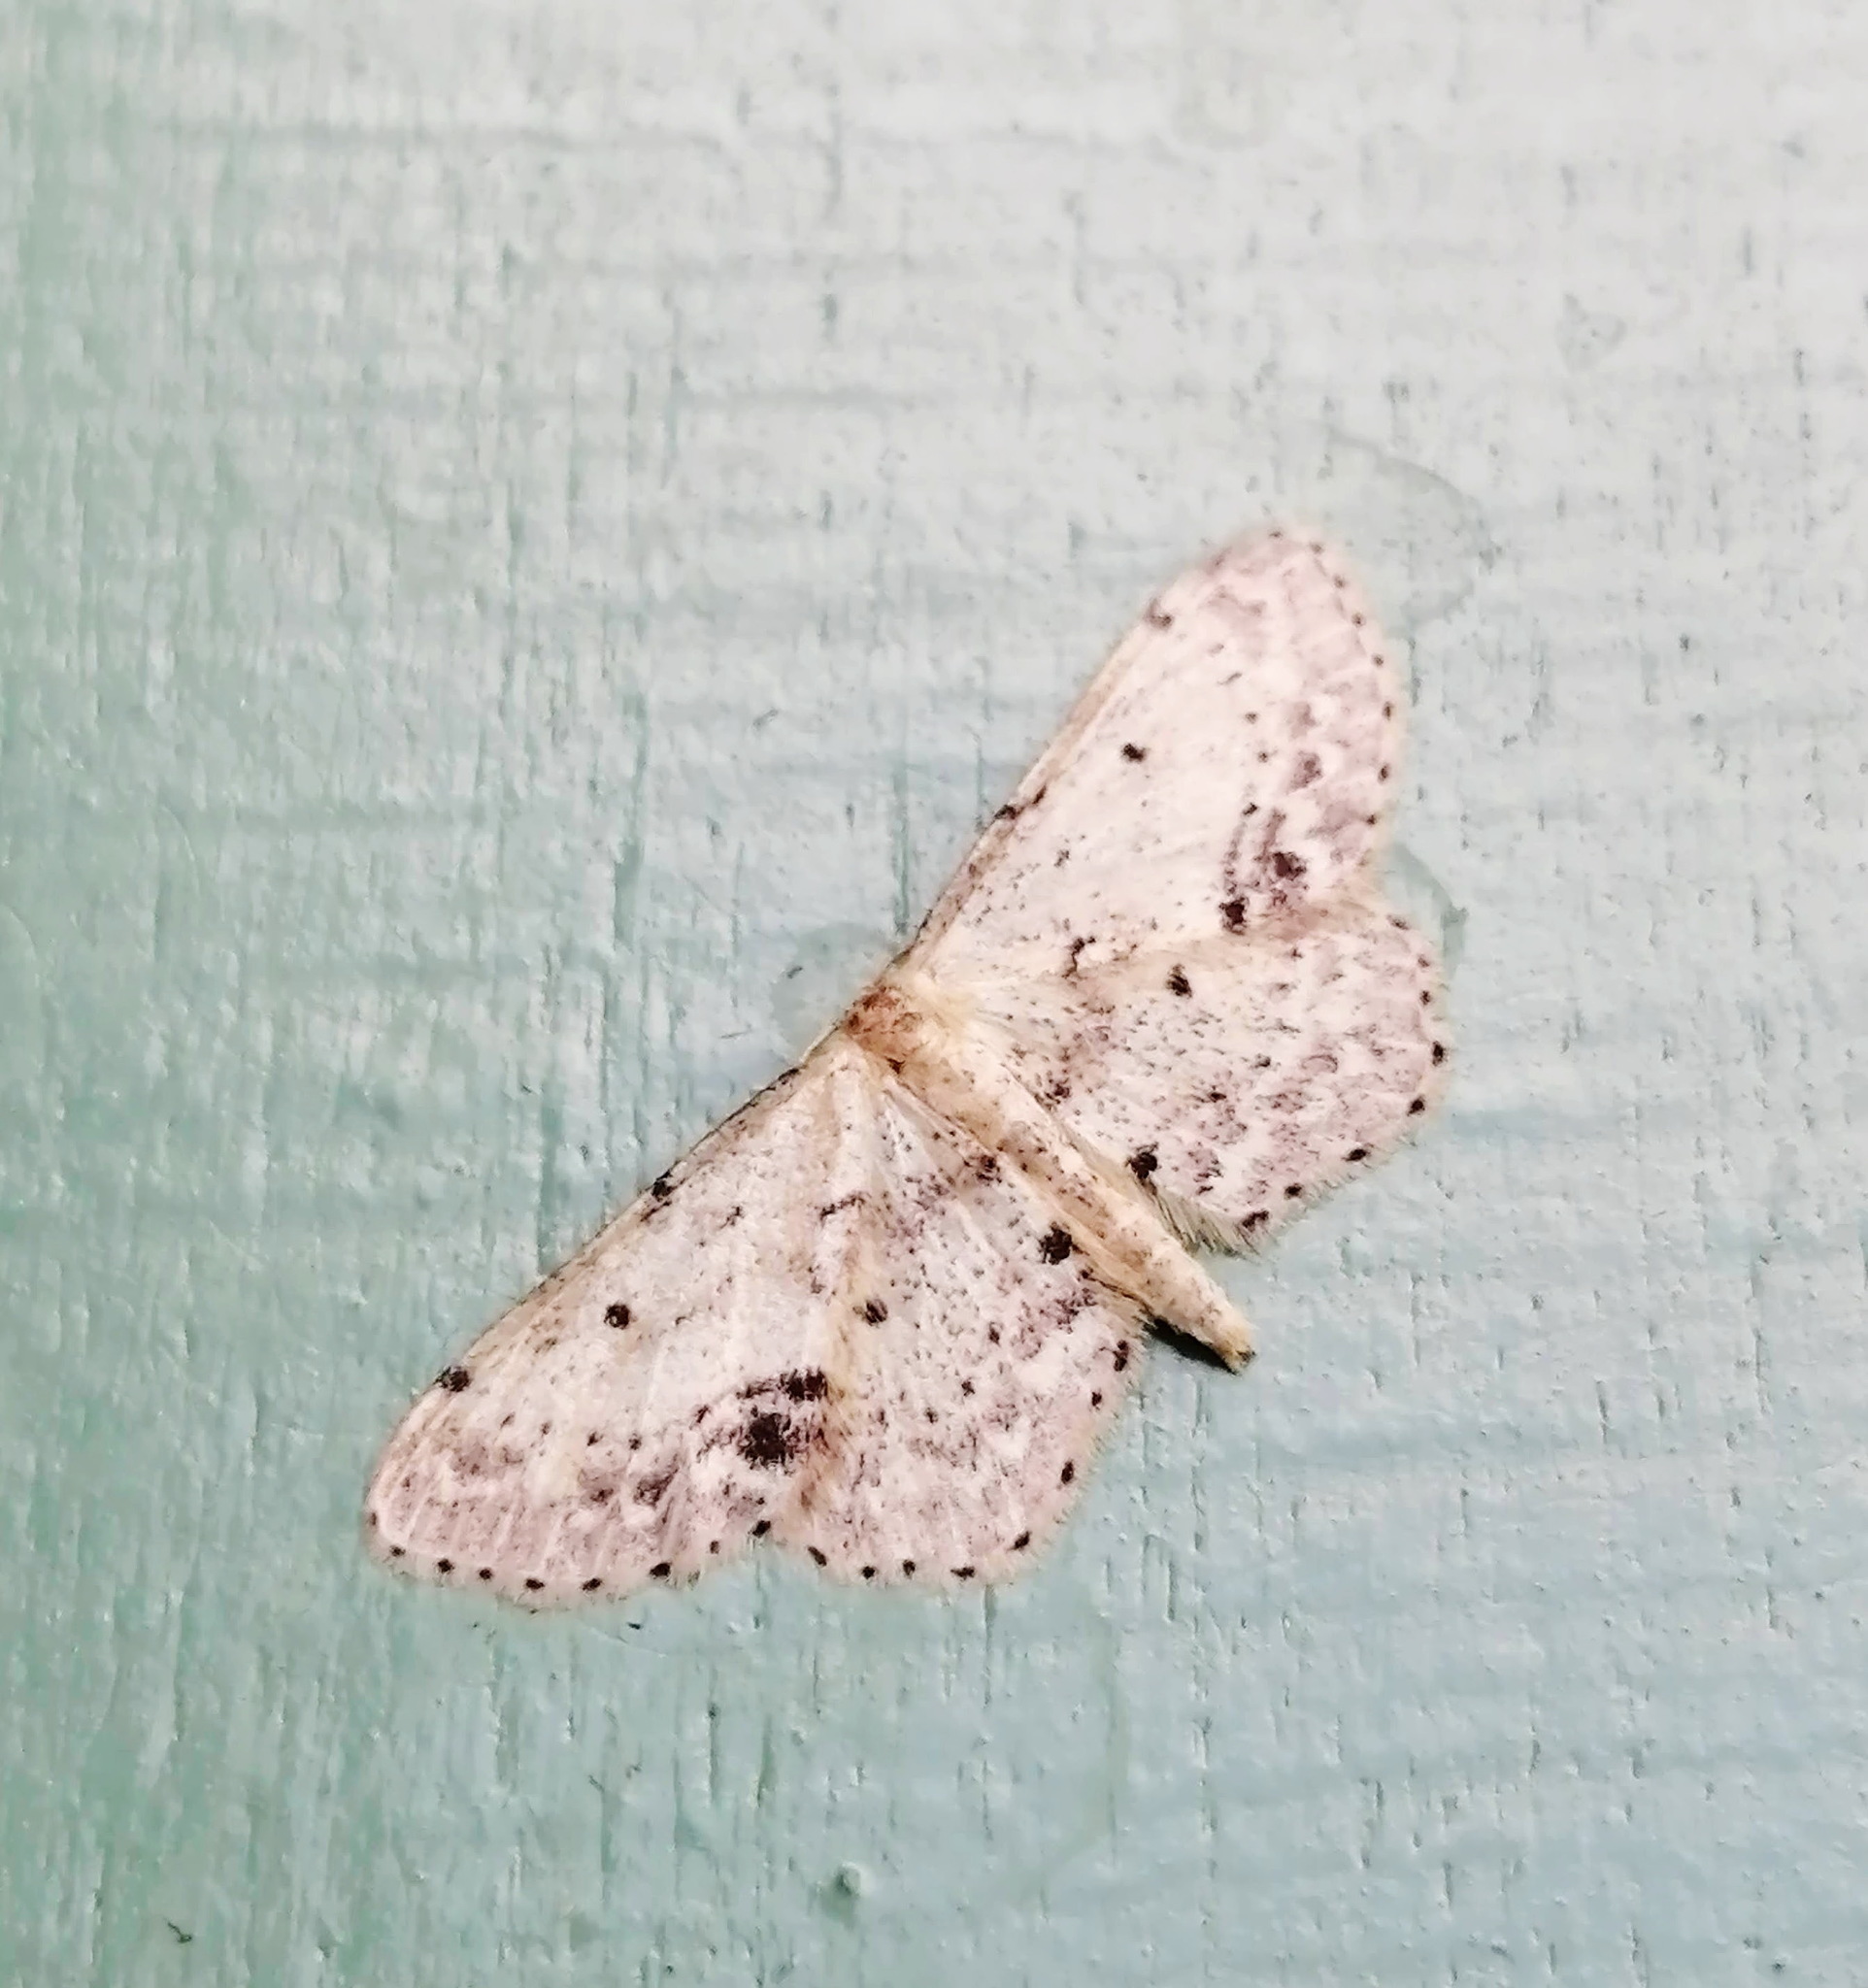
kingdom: Animalia
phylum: Arthropoda
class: Insecta
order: Lepidoptera
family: Geometridae
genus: Idaea
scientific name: Idaea dimidiata
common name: Single-dotted wave
